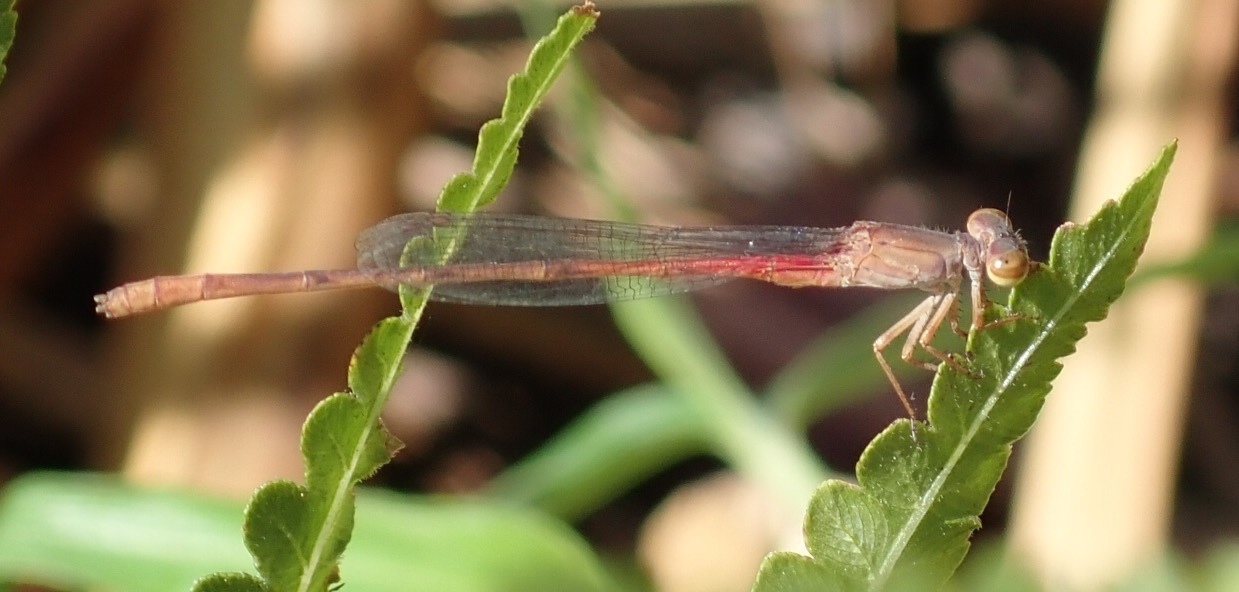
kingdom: Animalia
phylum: Arthropoda
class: Insecta
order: Odonata
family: Coenagrionidae
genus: Ceriagrion
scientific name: Ceriagrion katamborae
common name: White-faced waxtail
